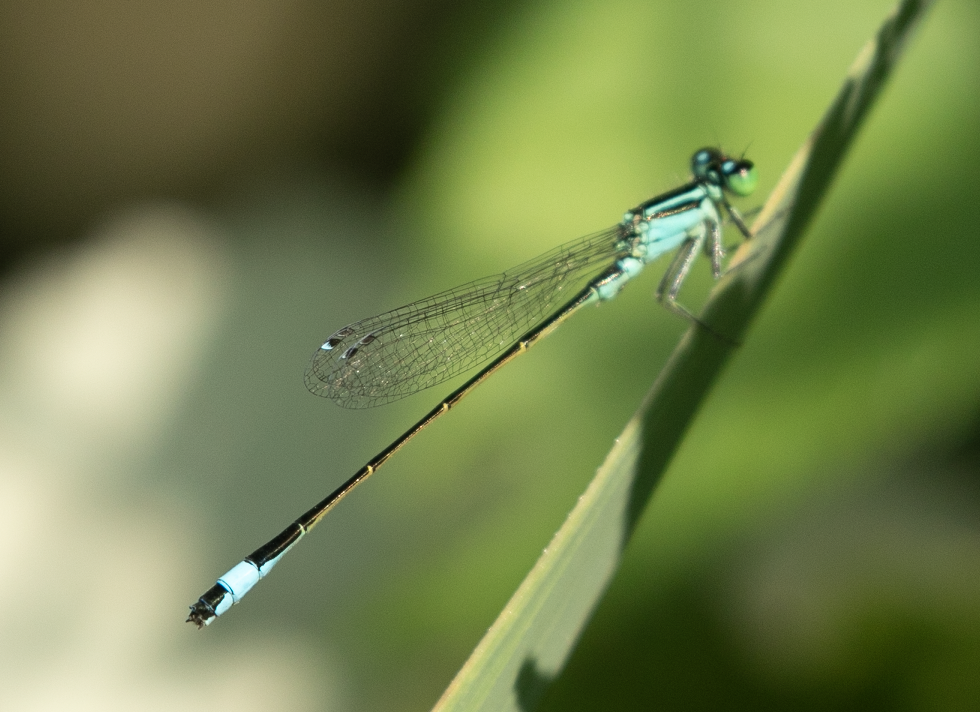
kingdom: Animalia
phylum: Arthropoda
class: Insecta
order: Odonata
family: Coenagrionidae
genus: Ischnura
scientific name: Ischnura elegans
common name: Blue-tailed damselfly
